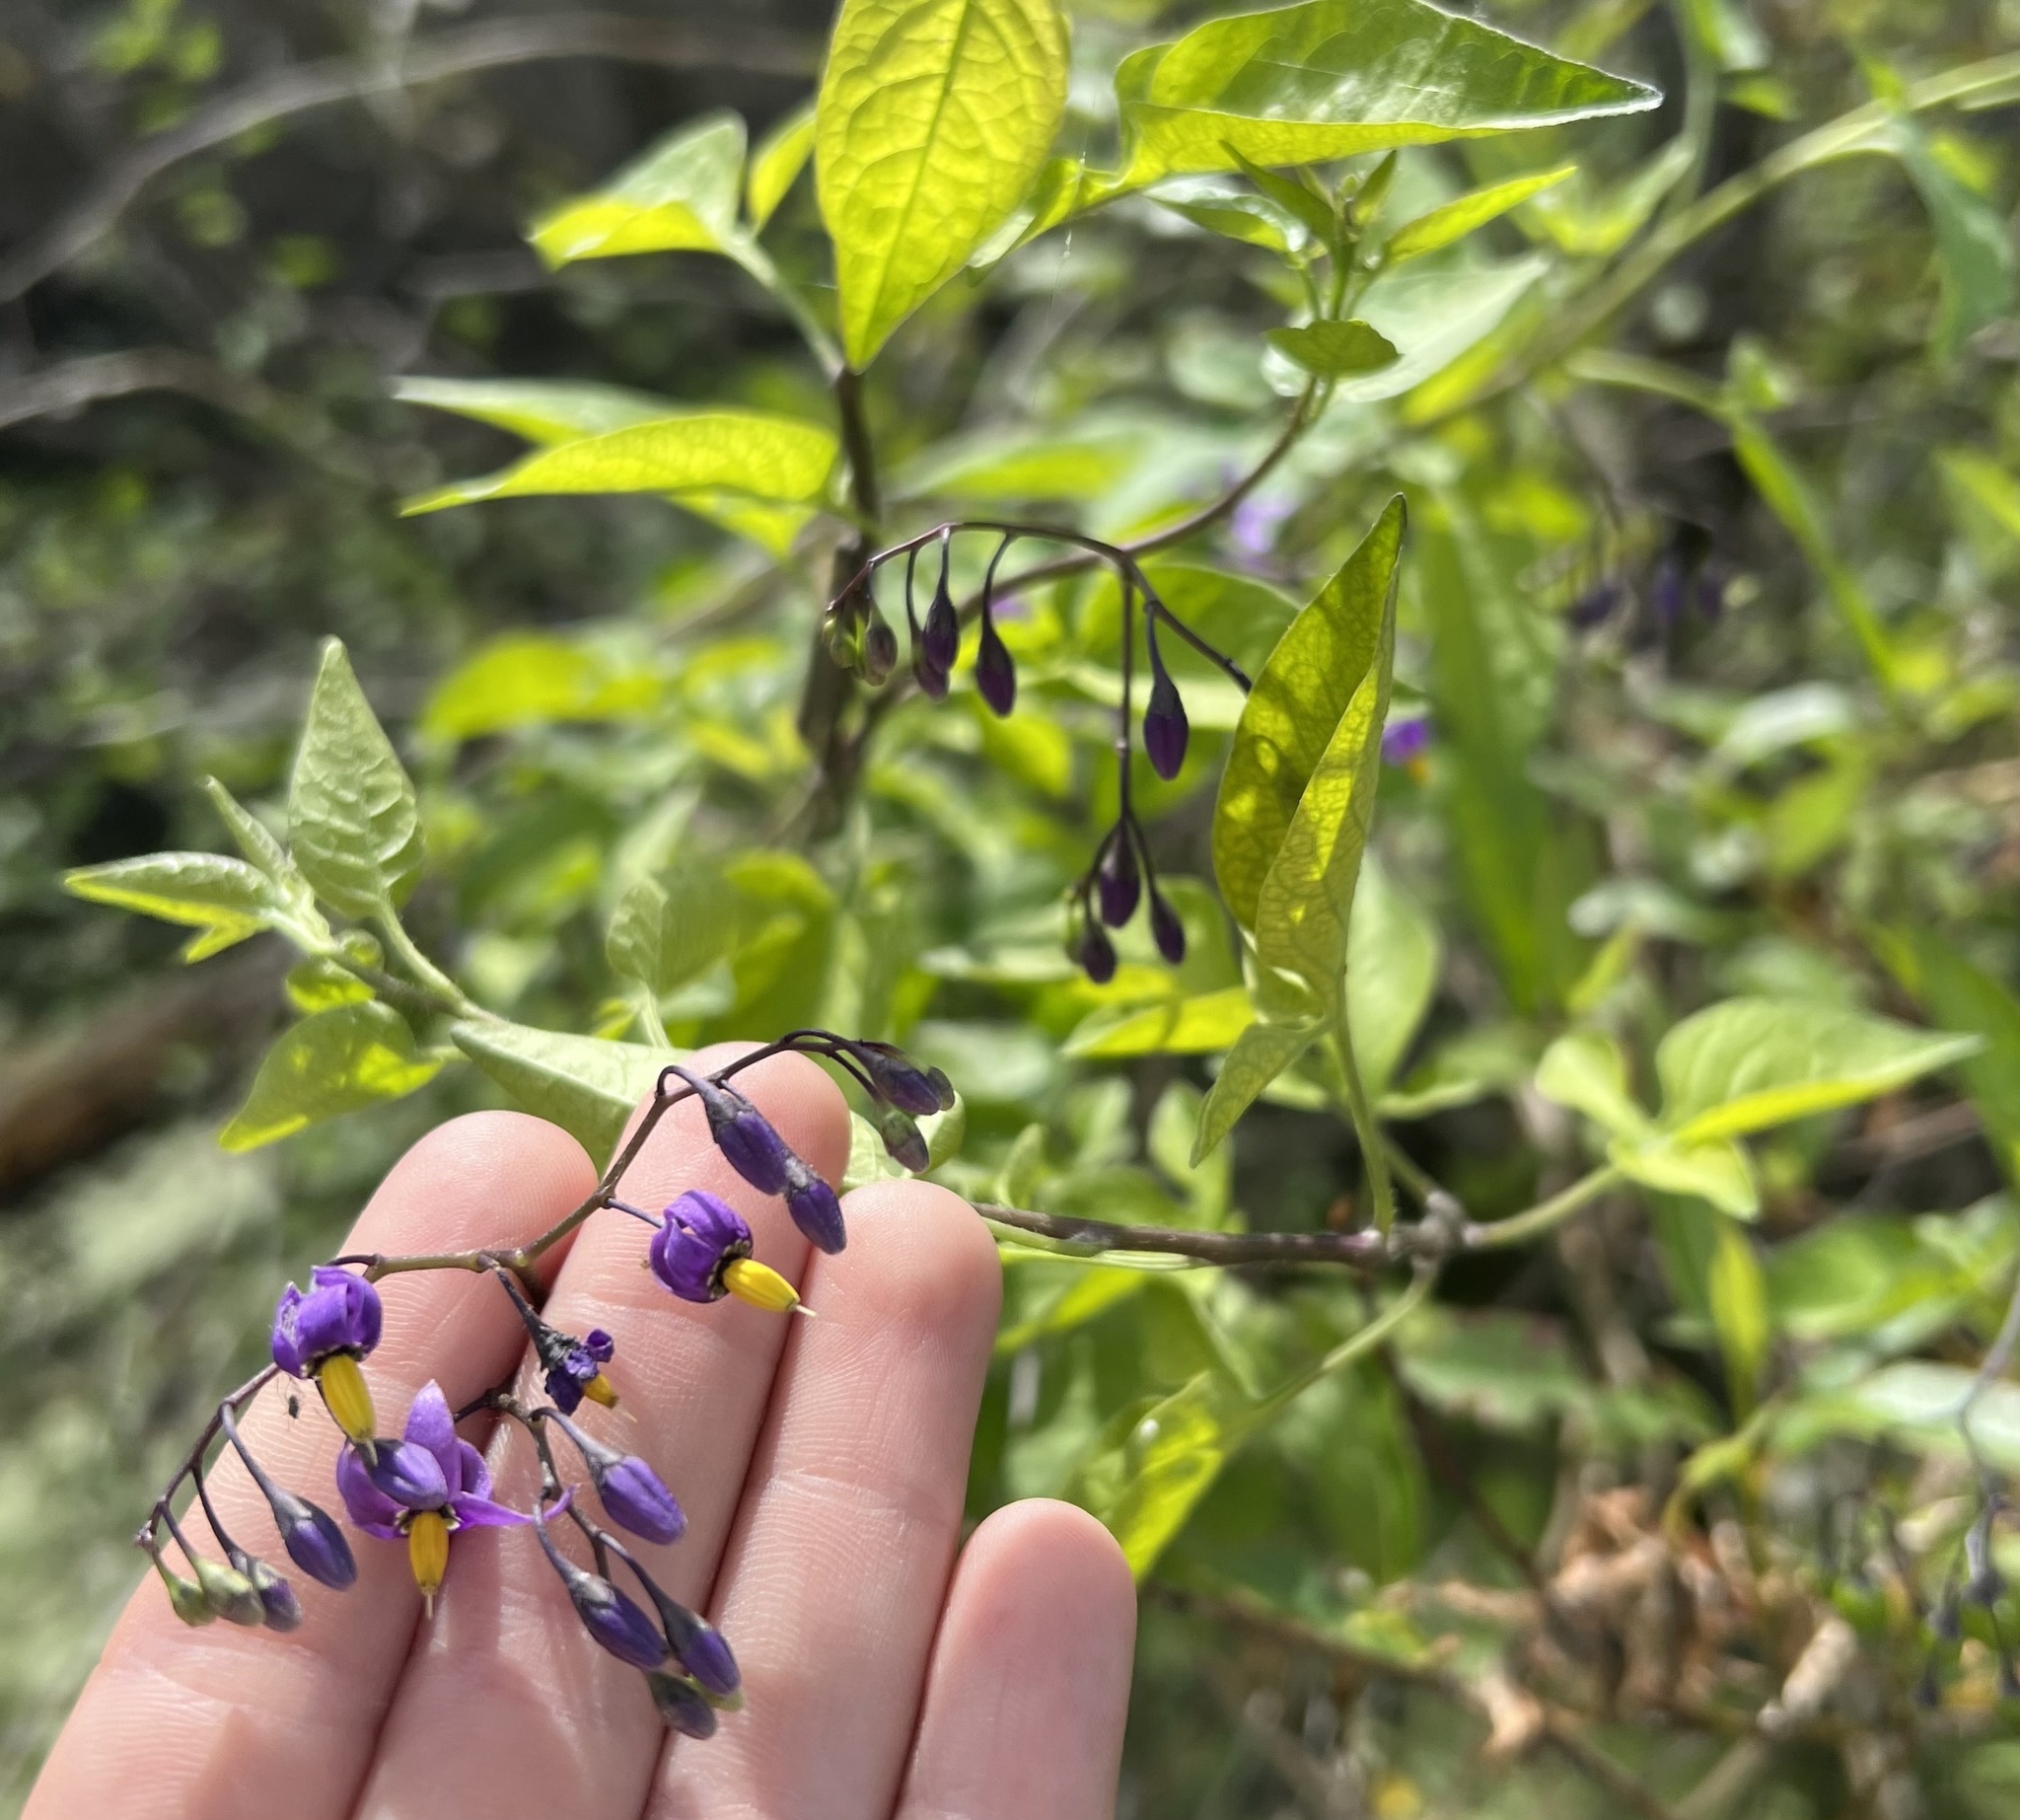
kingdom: Plantae
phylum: Tracheophyta
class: Magnoliopsida
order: Solanales
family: Solanaceae
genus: Solanum
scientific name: Solanum dulcamara
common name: Climbing nightshade
